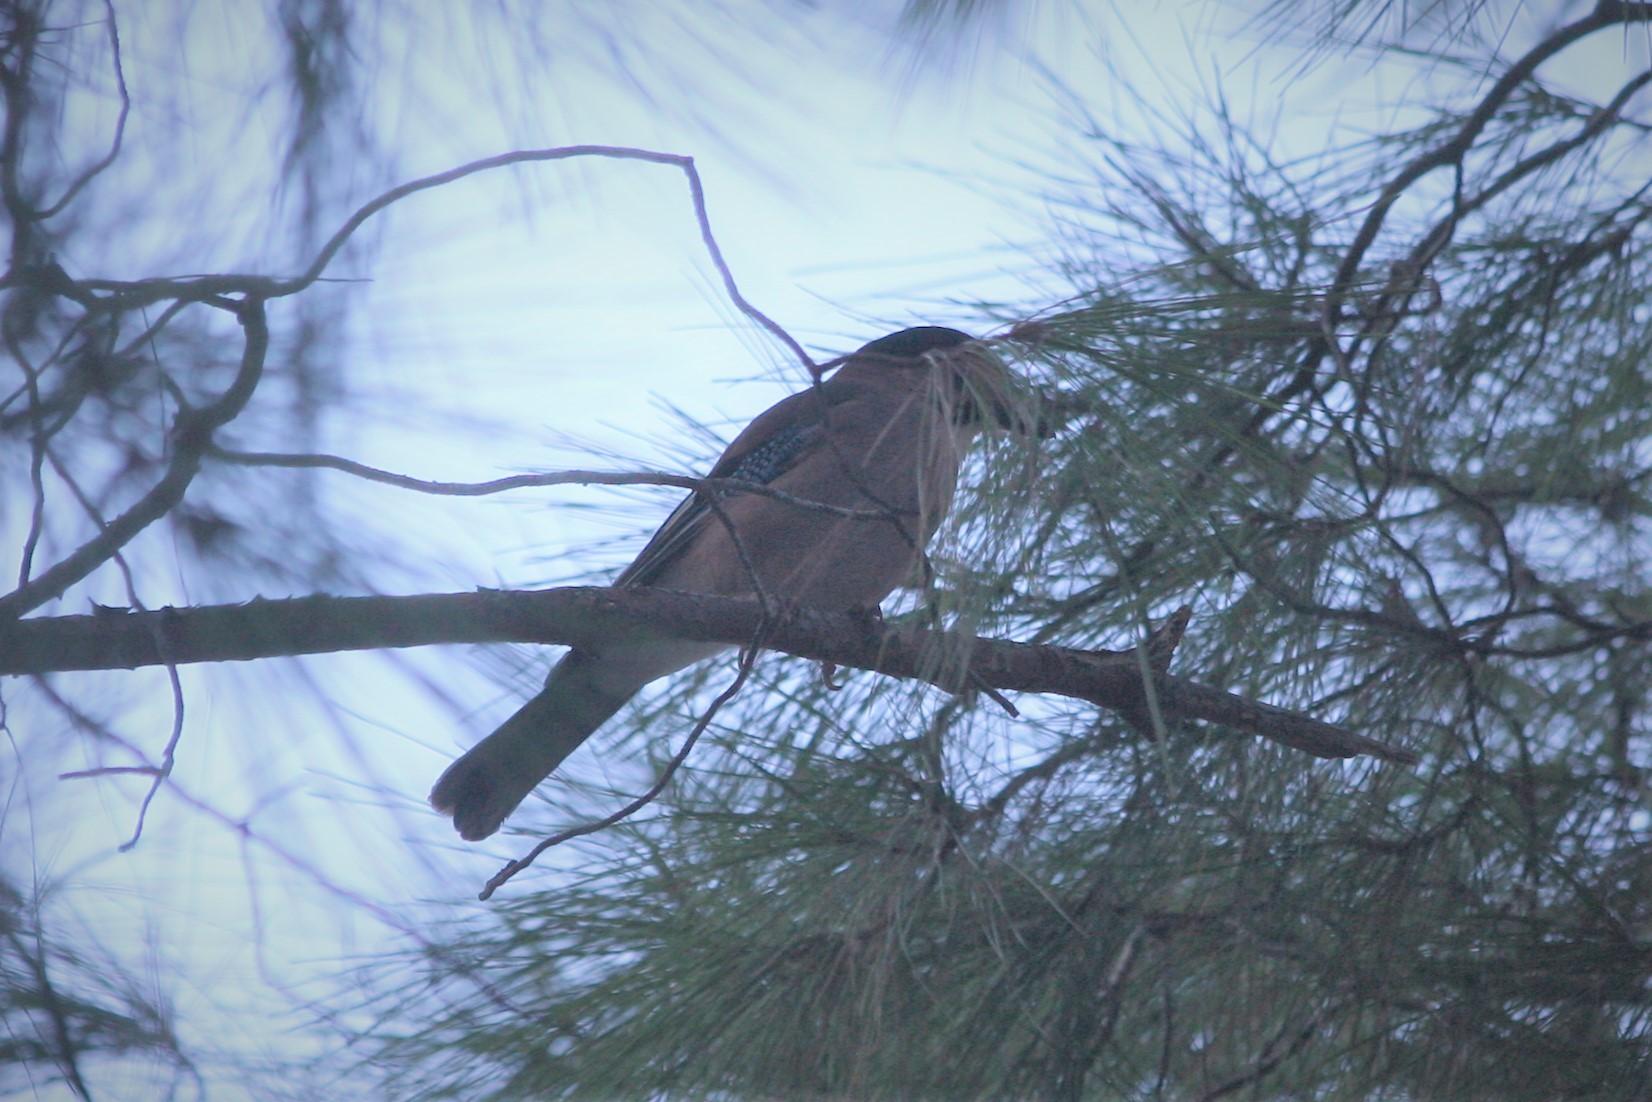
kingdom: Animalia
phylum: Chordata
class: Aves
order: Passeriformes
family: Corvidae
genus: Garrulus
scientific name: Garrulus glandarius
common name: Eurasian jay
